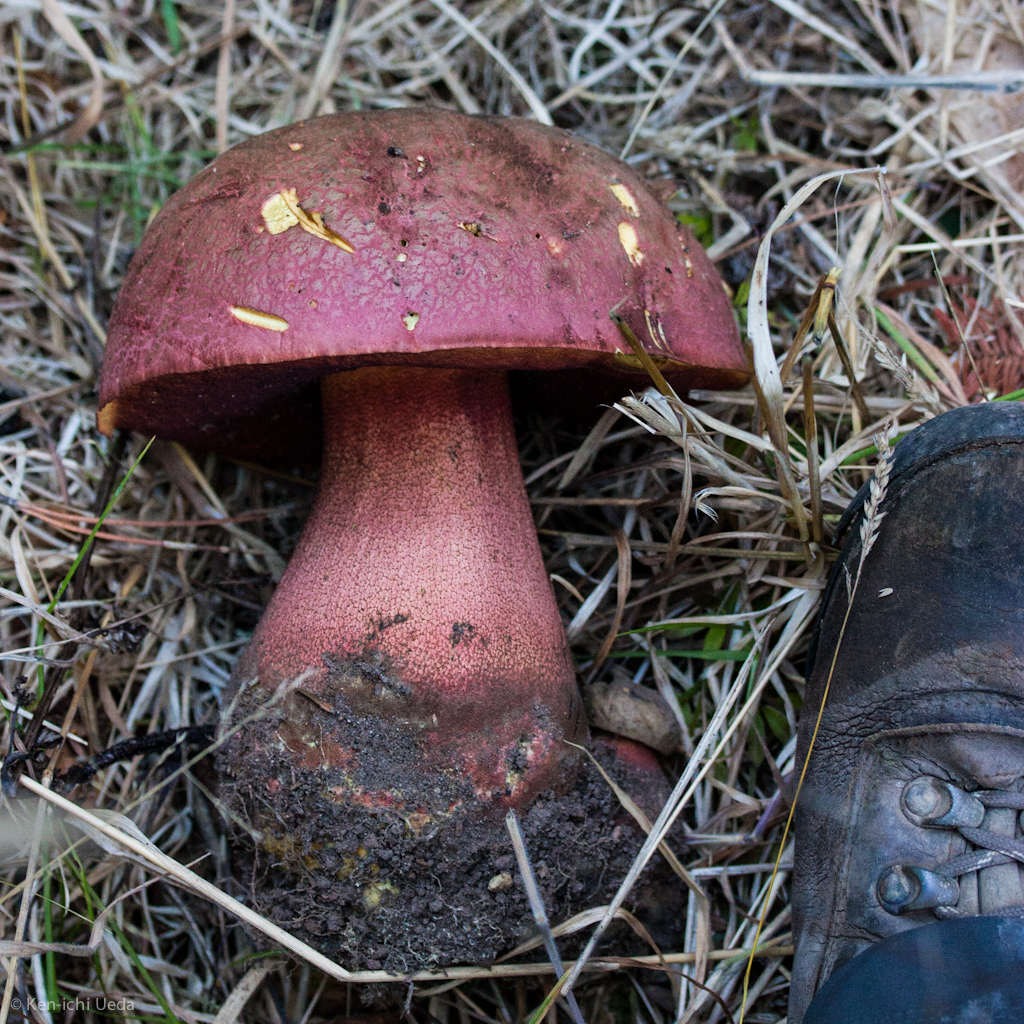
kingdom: Fungi
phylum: Basidiomycota
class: Agaricomycetes
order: Boletales
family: Boletaceae
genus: Rubroboletus
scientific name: Rubroboletus pulcherrimus
